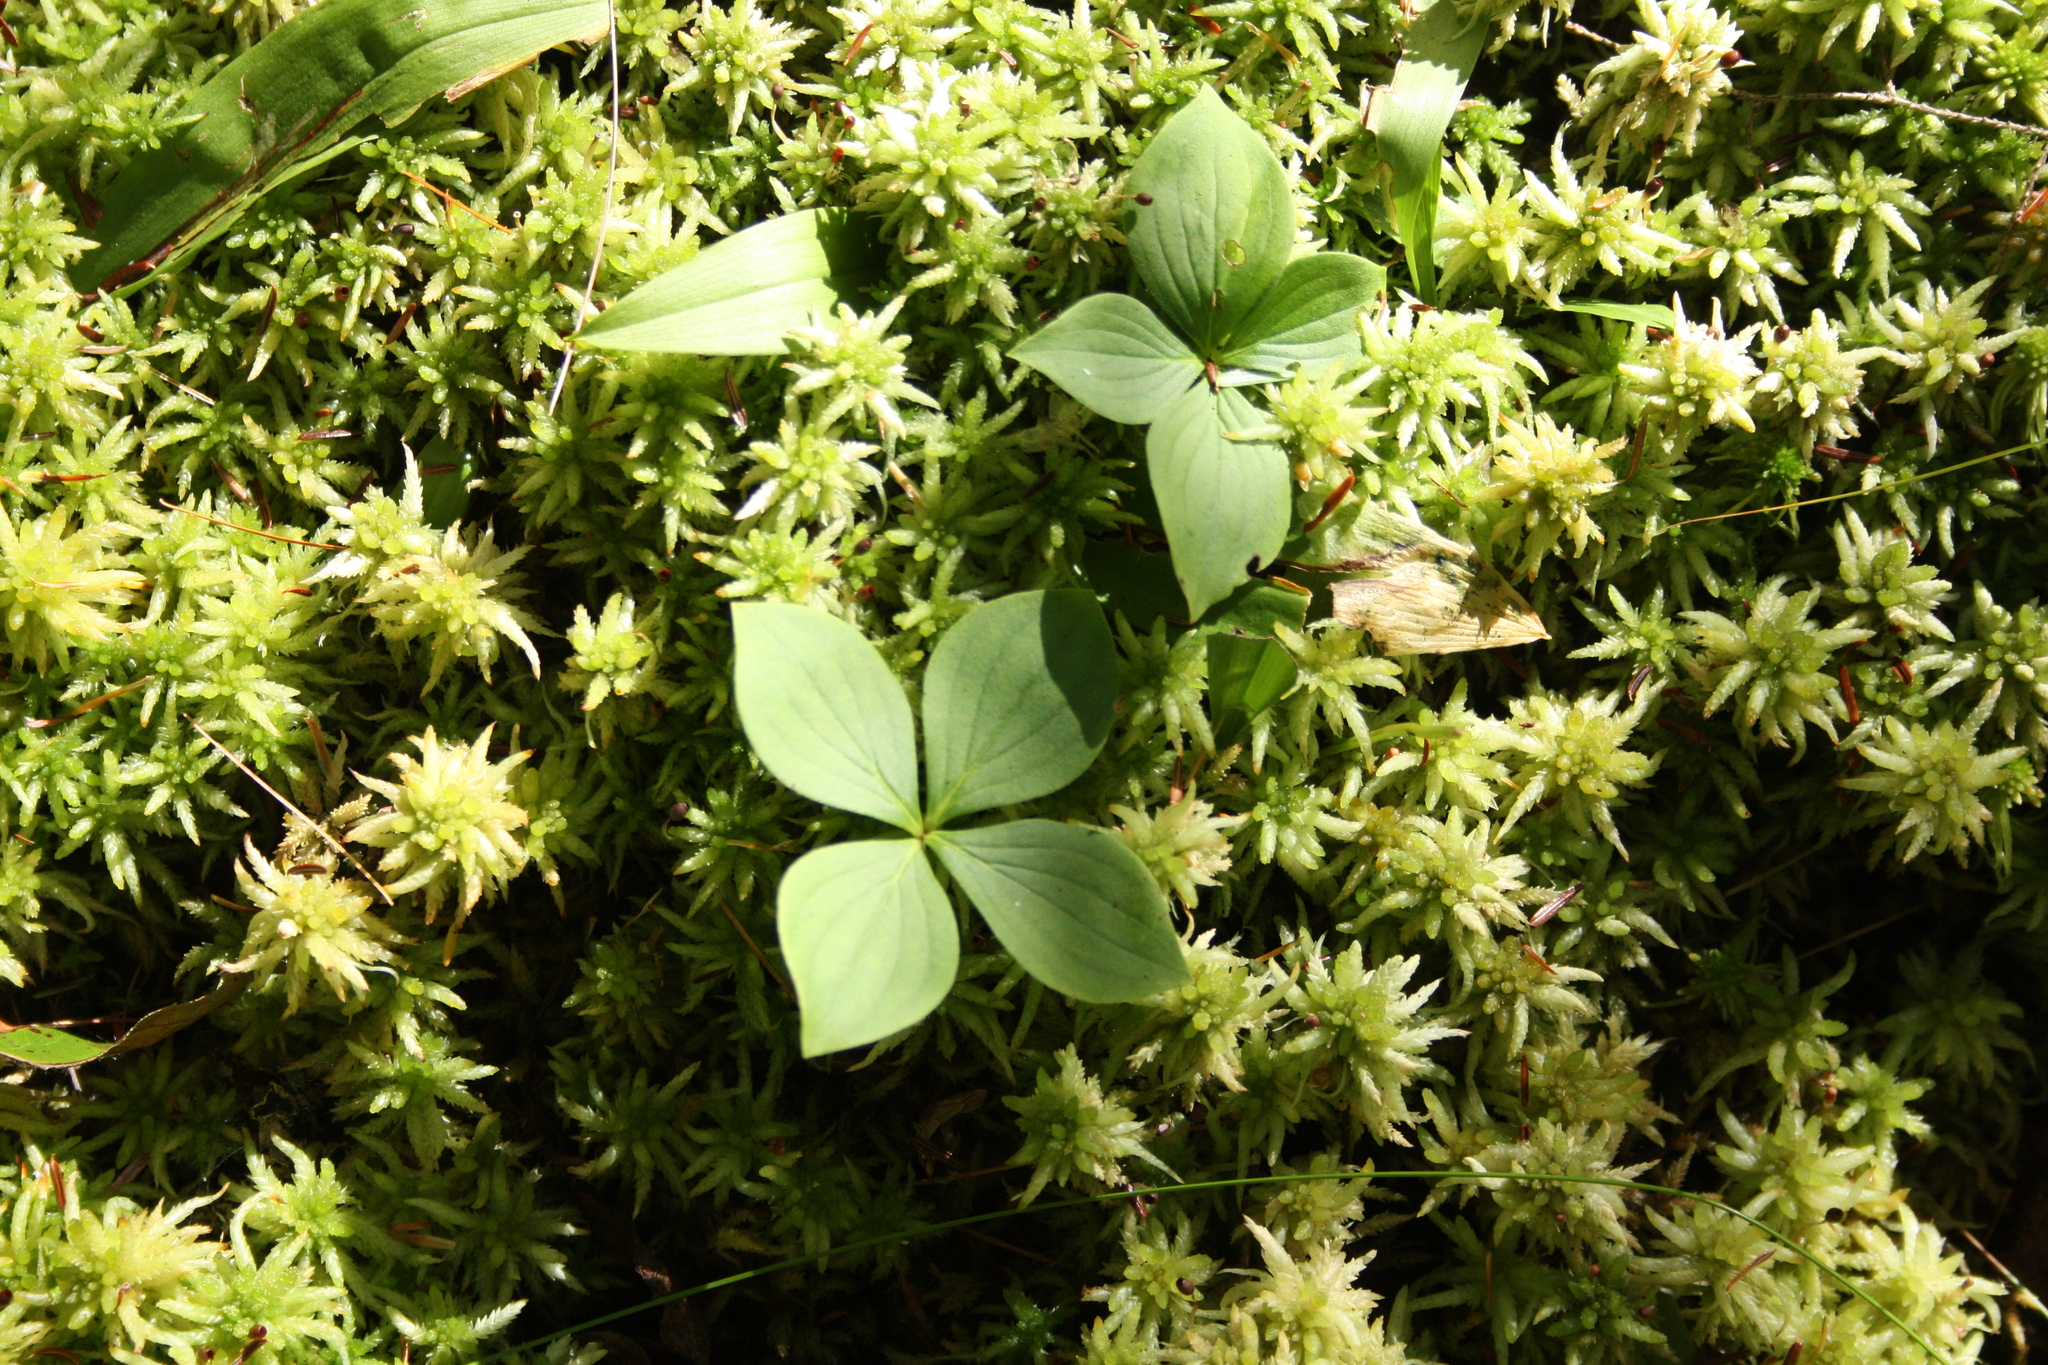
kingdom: Plantae
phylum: Tracheophyta
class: Magnoliopsida
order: Cornales
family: Cornaceae
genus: Cornus
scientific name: Cornus canadensis
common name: Creeping dogwood
